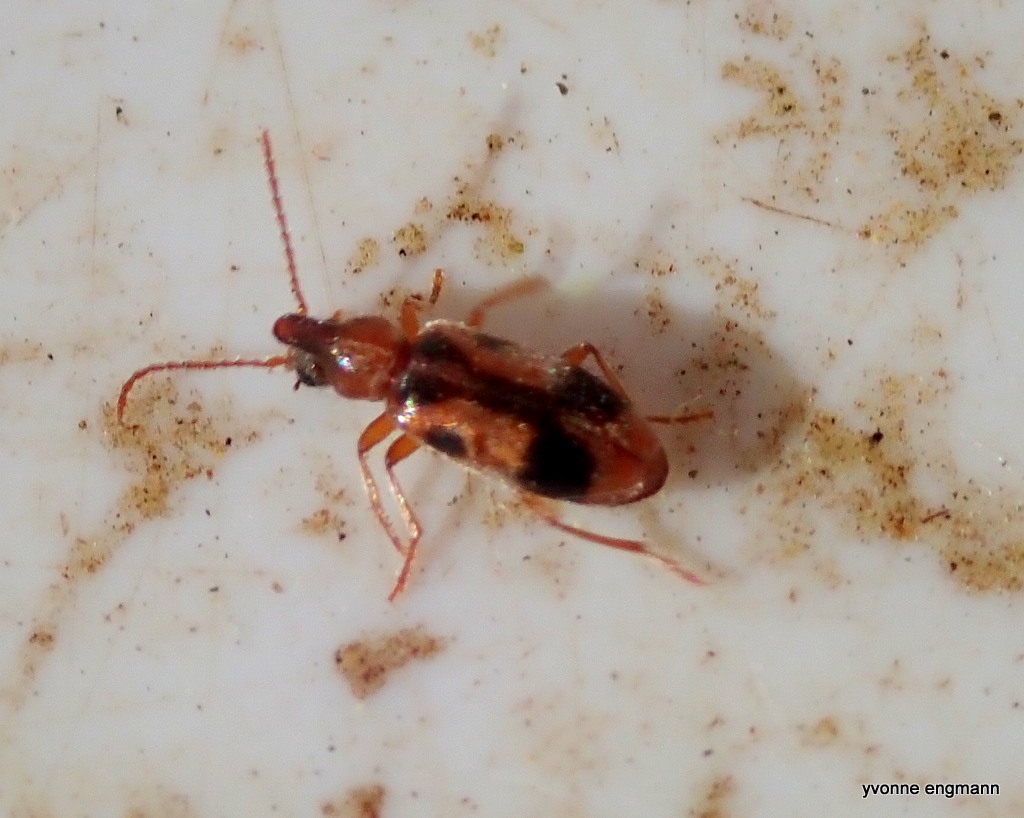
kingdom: Animalia
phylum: Arthropoda
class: Insecta
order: Coleoptera
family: Anthicidae
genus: Notoxus
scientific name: Notoxus monoceros
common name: Monoceros beetle
